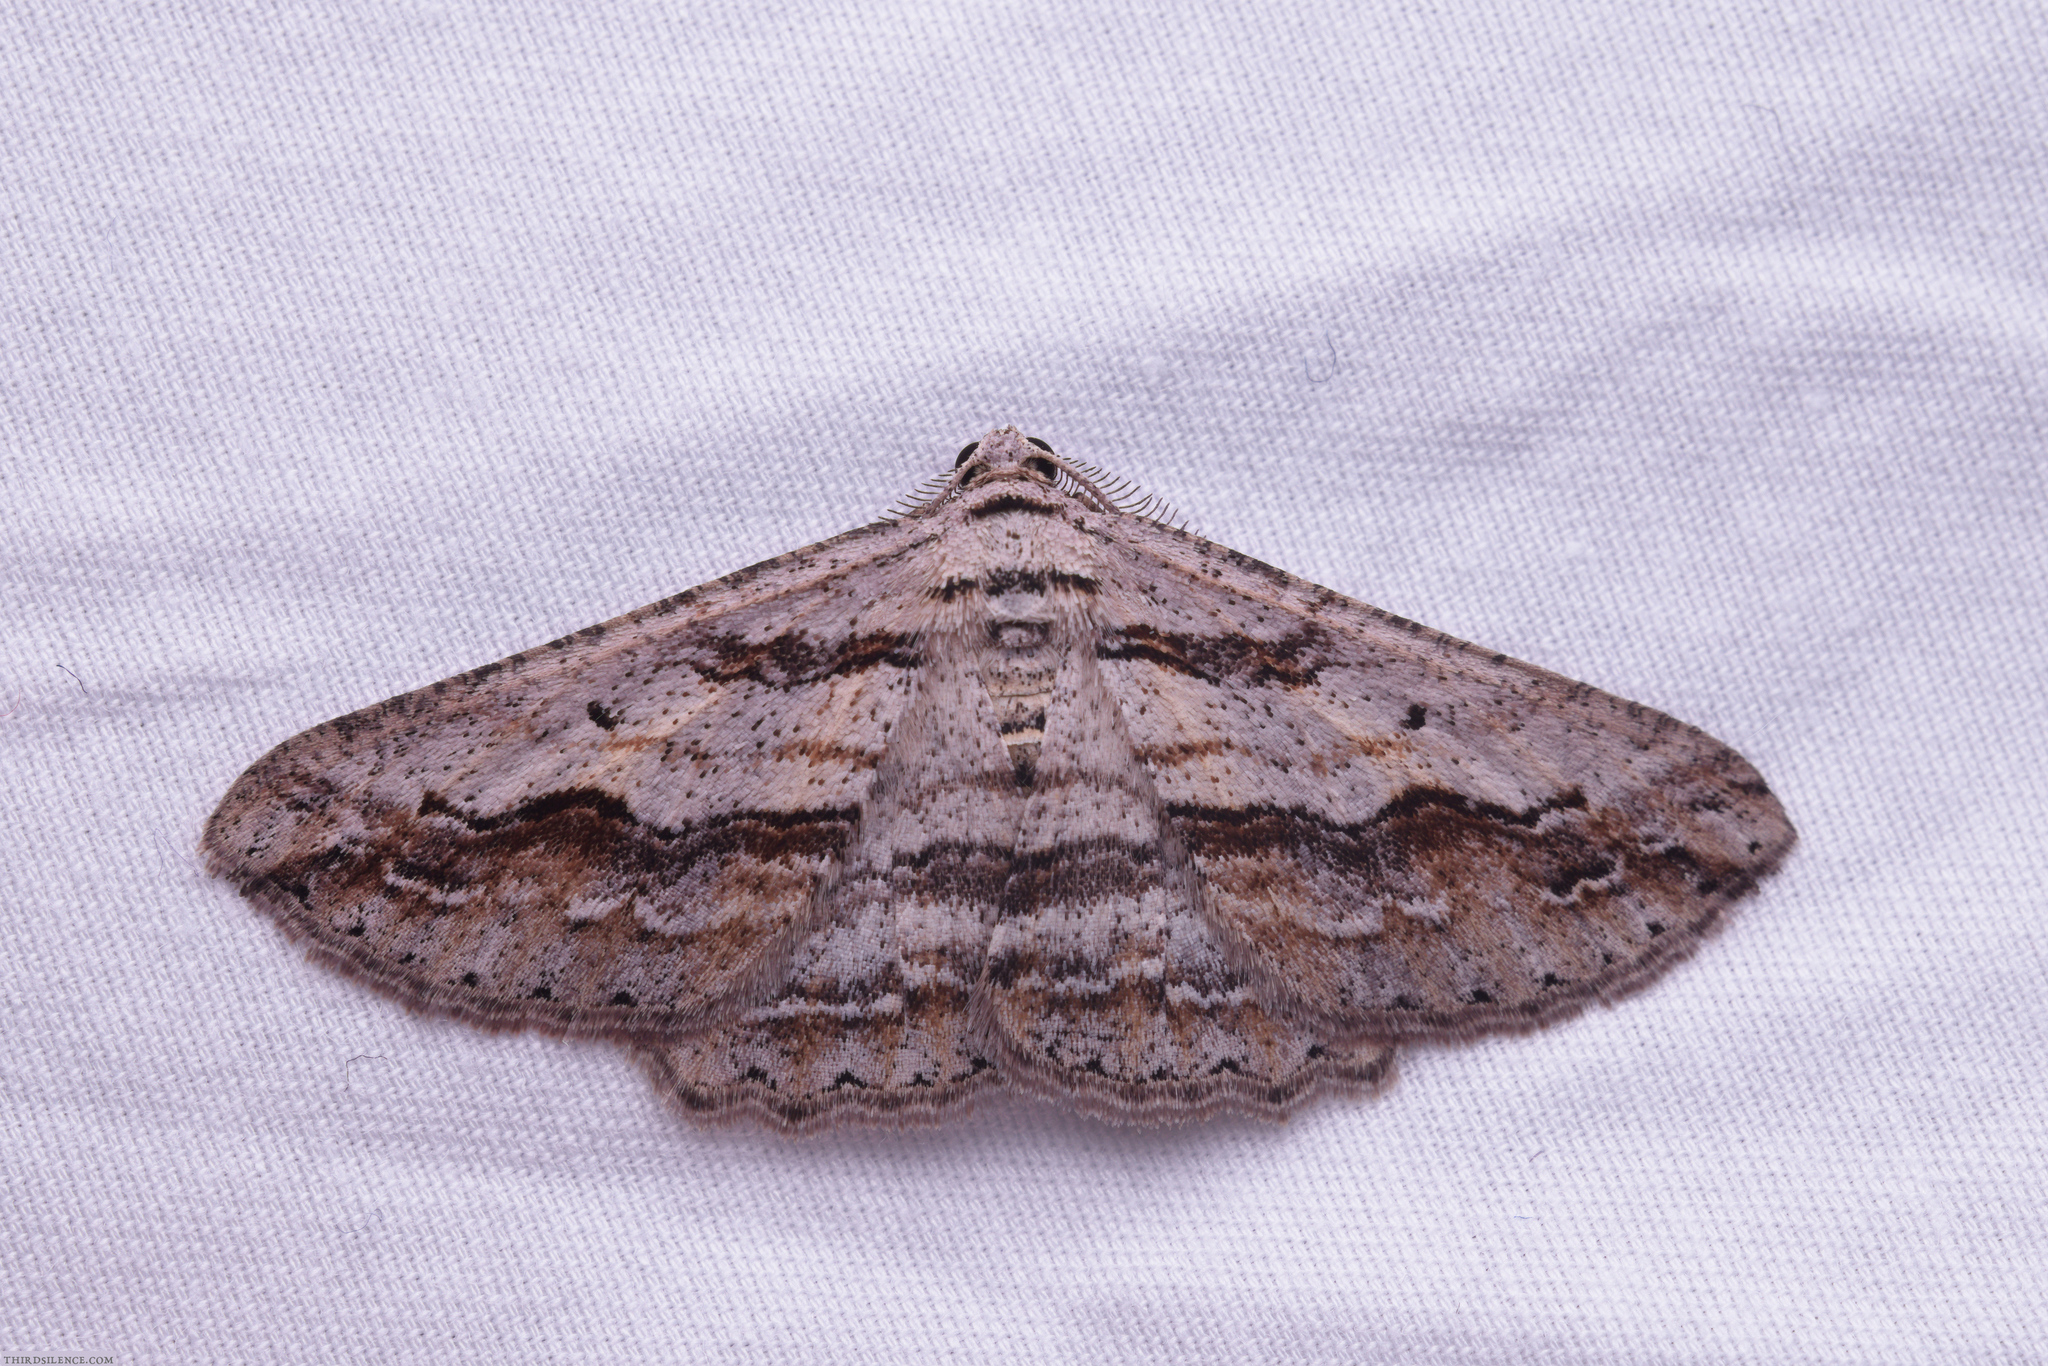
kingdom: Animalia
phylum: Arthropoda
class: Insecta
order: Lepidoptera
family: Geometridae
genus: Syneora
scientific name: Syneora mundifera
